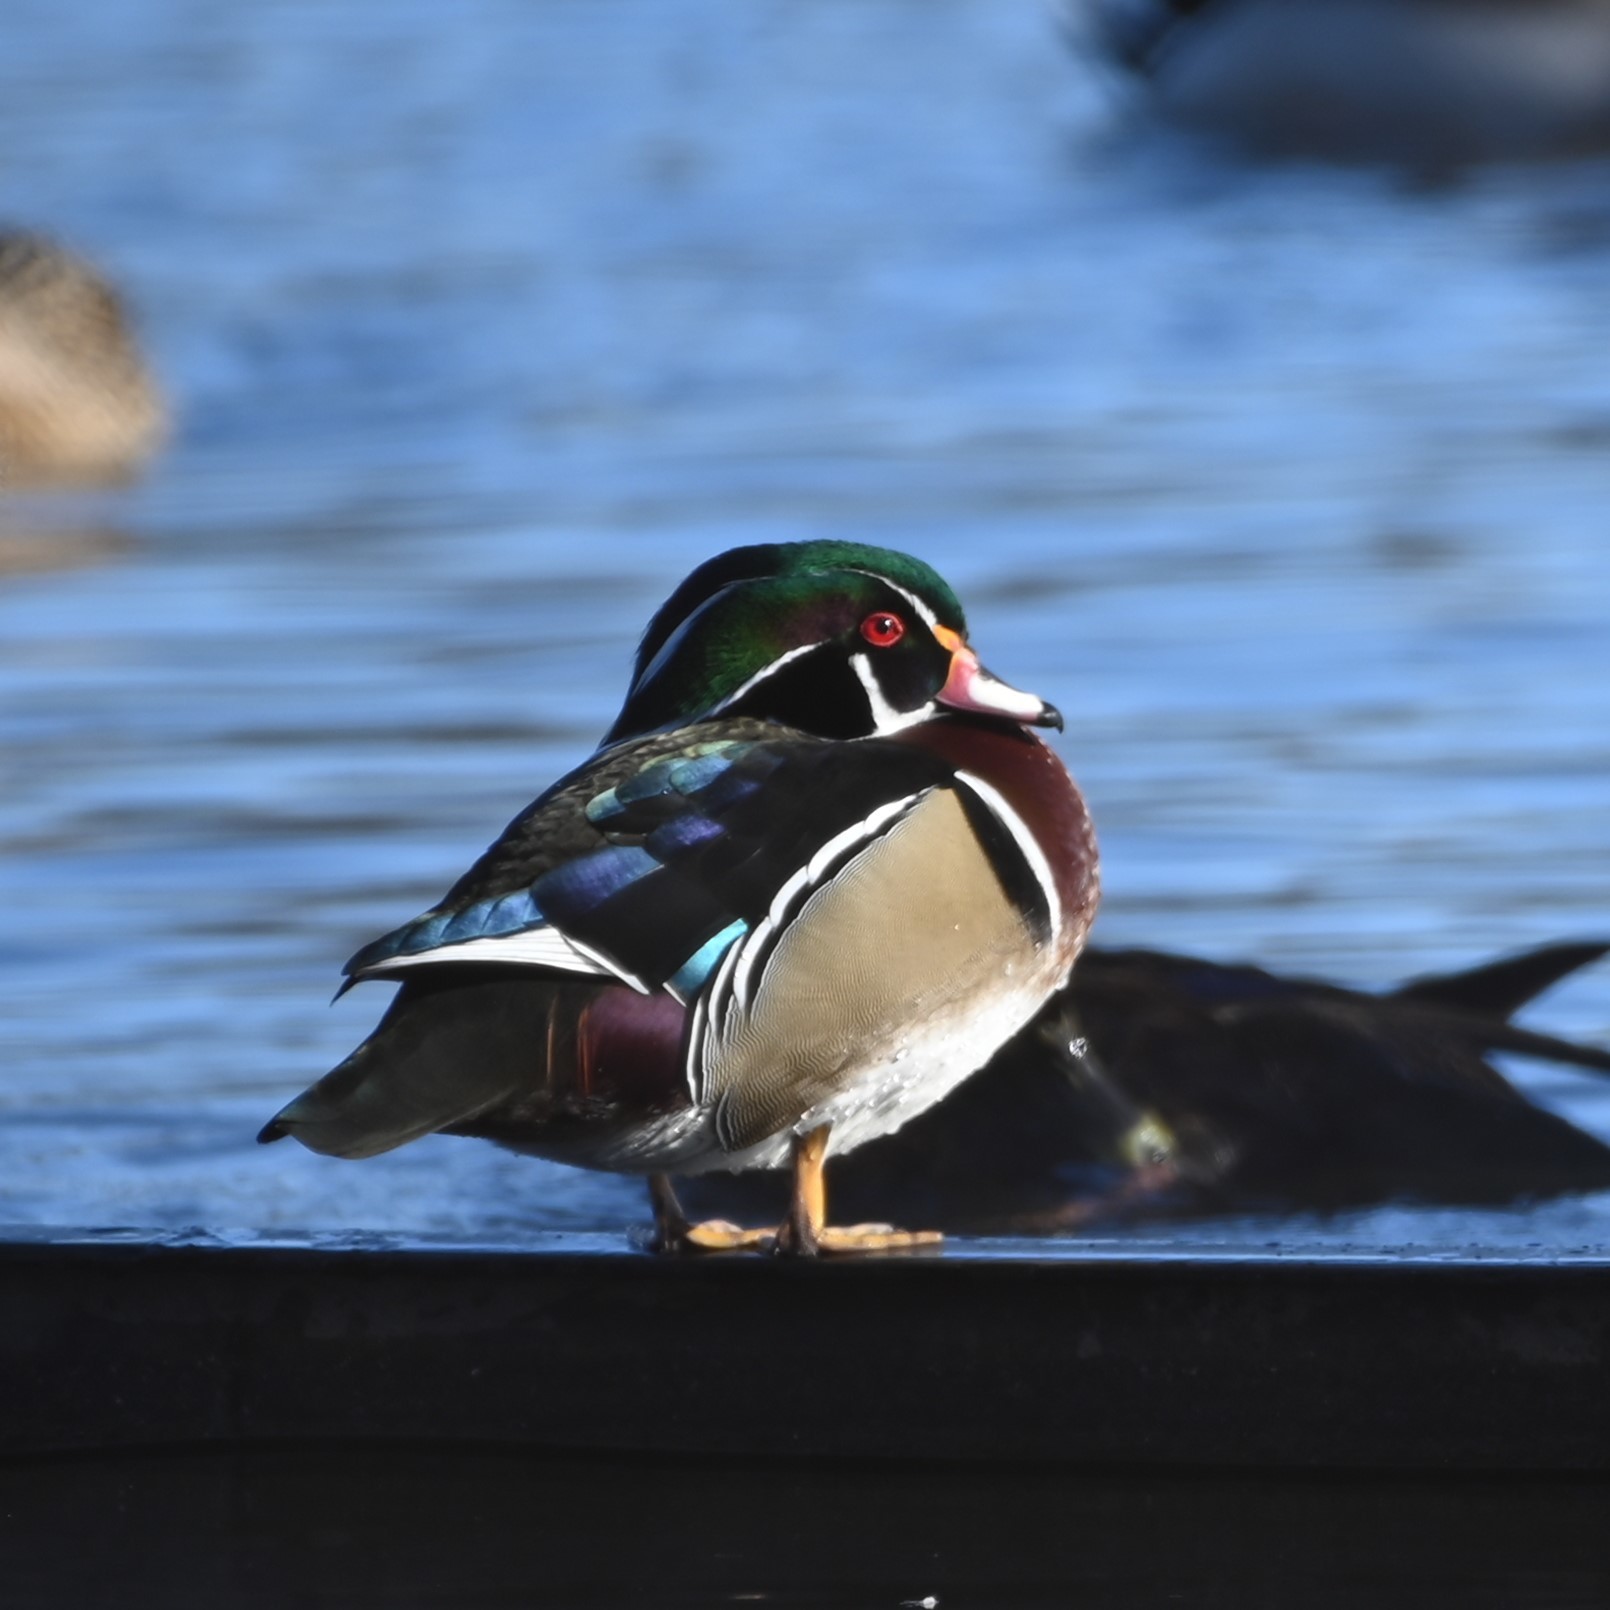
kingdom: Animalia
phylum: Chordata
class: Aves
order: Anseriformes
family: Anatidae
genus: Aix
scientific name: Aix sponsa
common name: Wood duck
